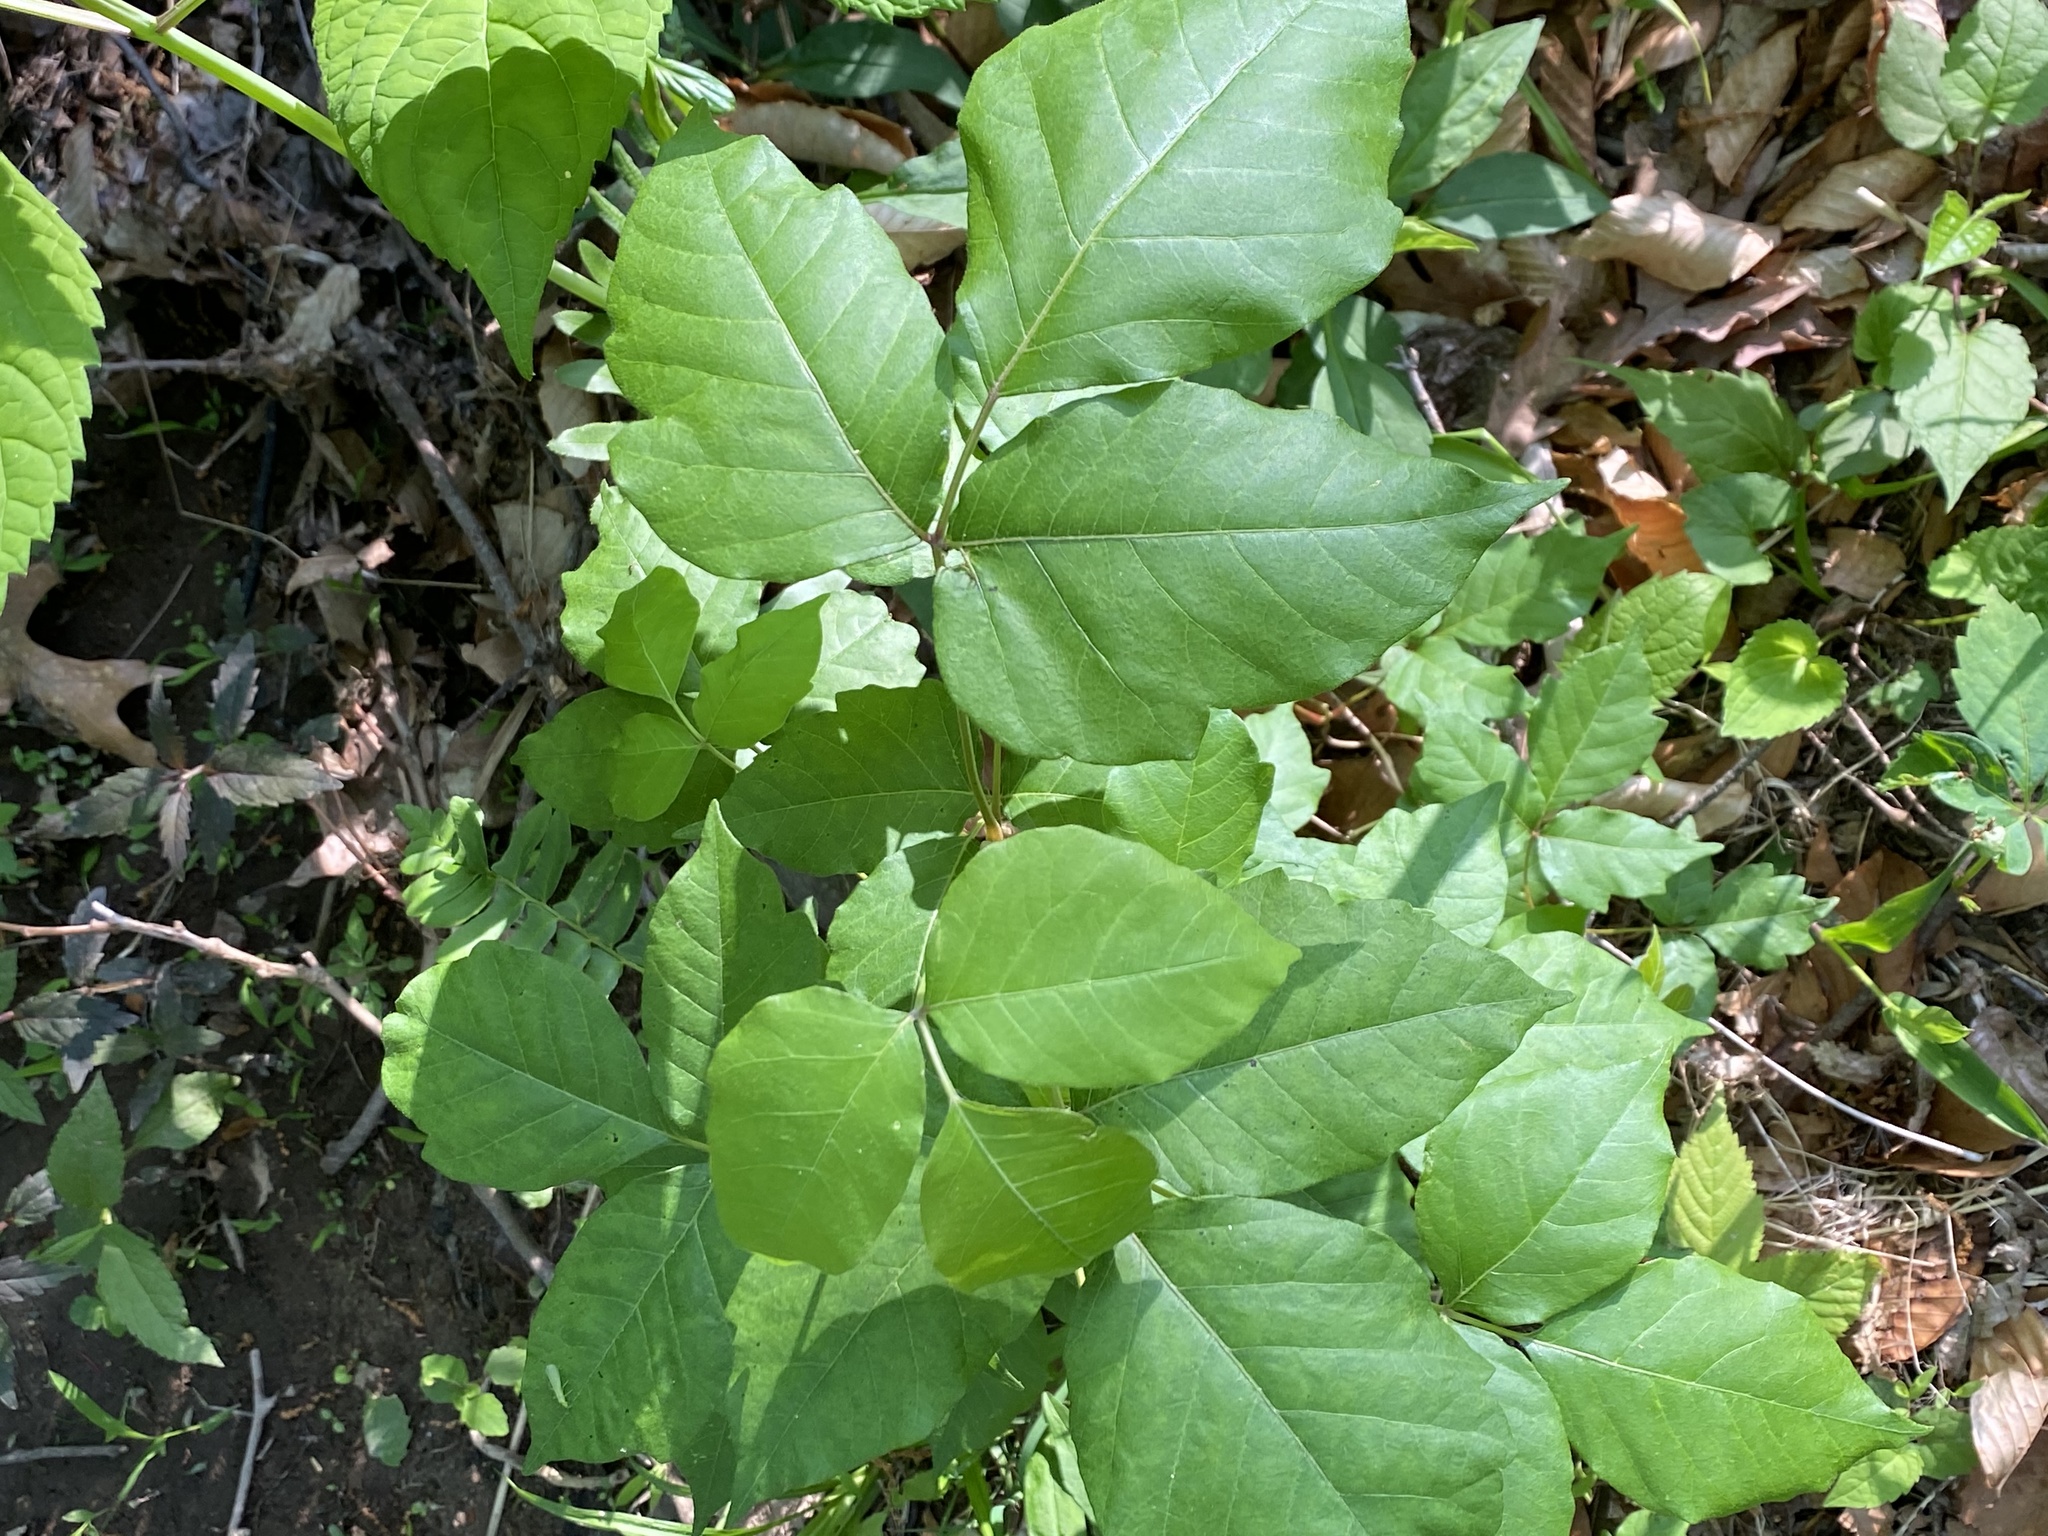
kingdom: Plantae
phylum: Tracheophyta
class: Magnoliopsida
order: Sapindales
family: Anacardiaceae
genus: Toxicodendron
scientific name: Toxicodendron radicans
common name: Poison ivy
